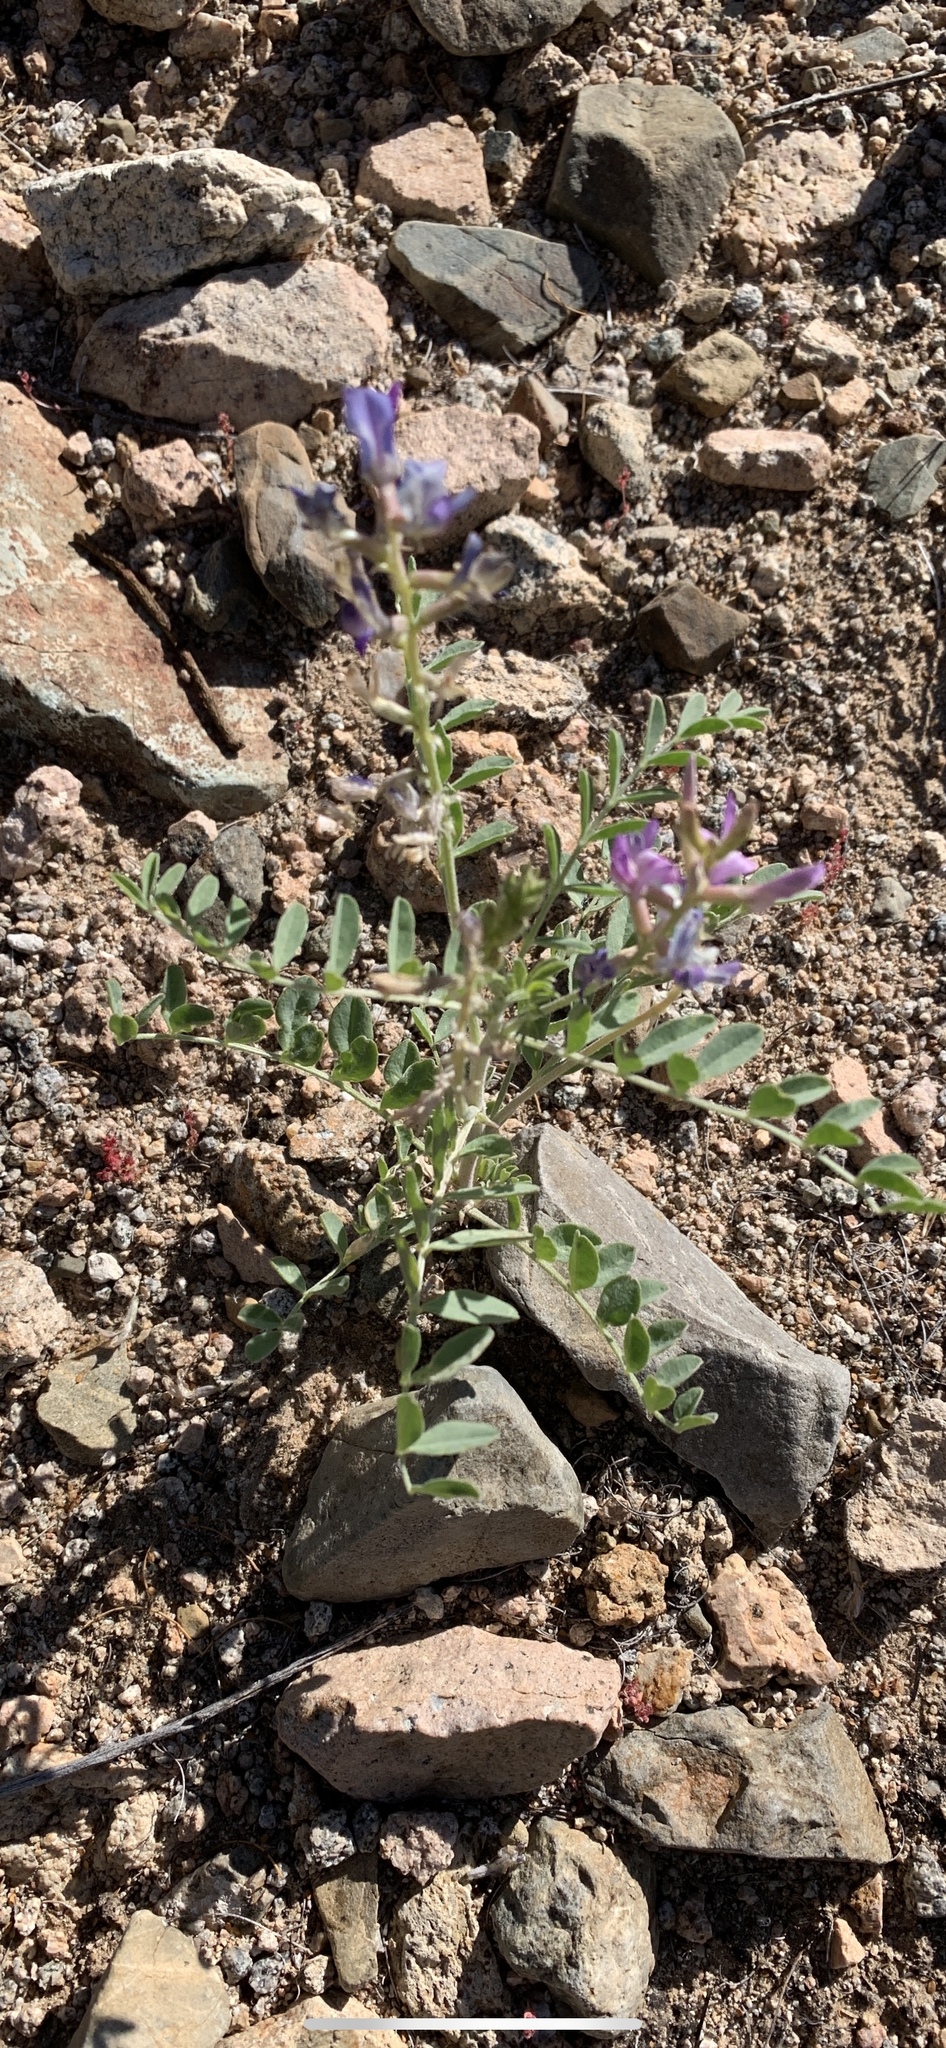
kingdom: Plantae
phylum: Tracheophyta
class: Magnoliopsida
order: Fabales
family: Fabaceae
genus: Astragalus
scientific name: Astragalus lentiginosus
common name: Freckled milkvetch
